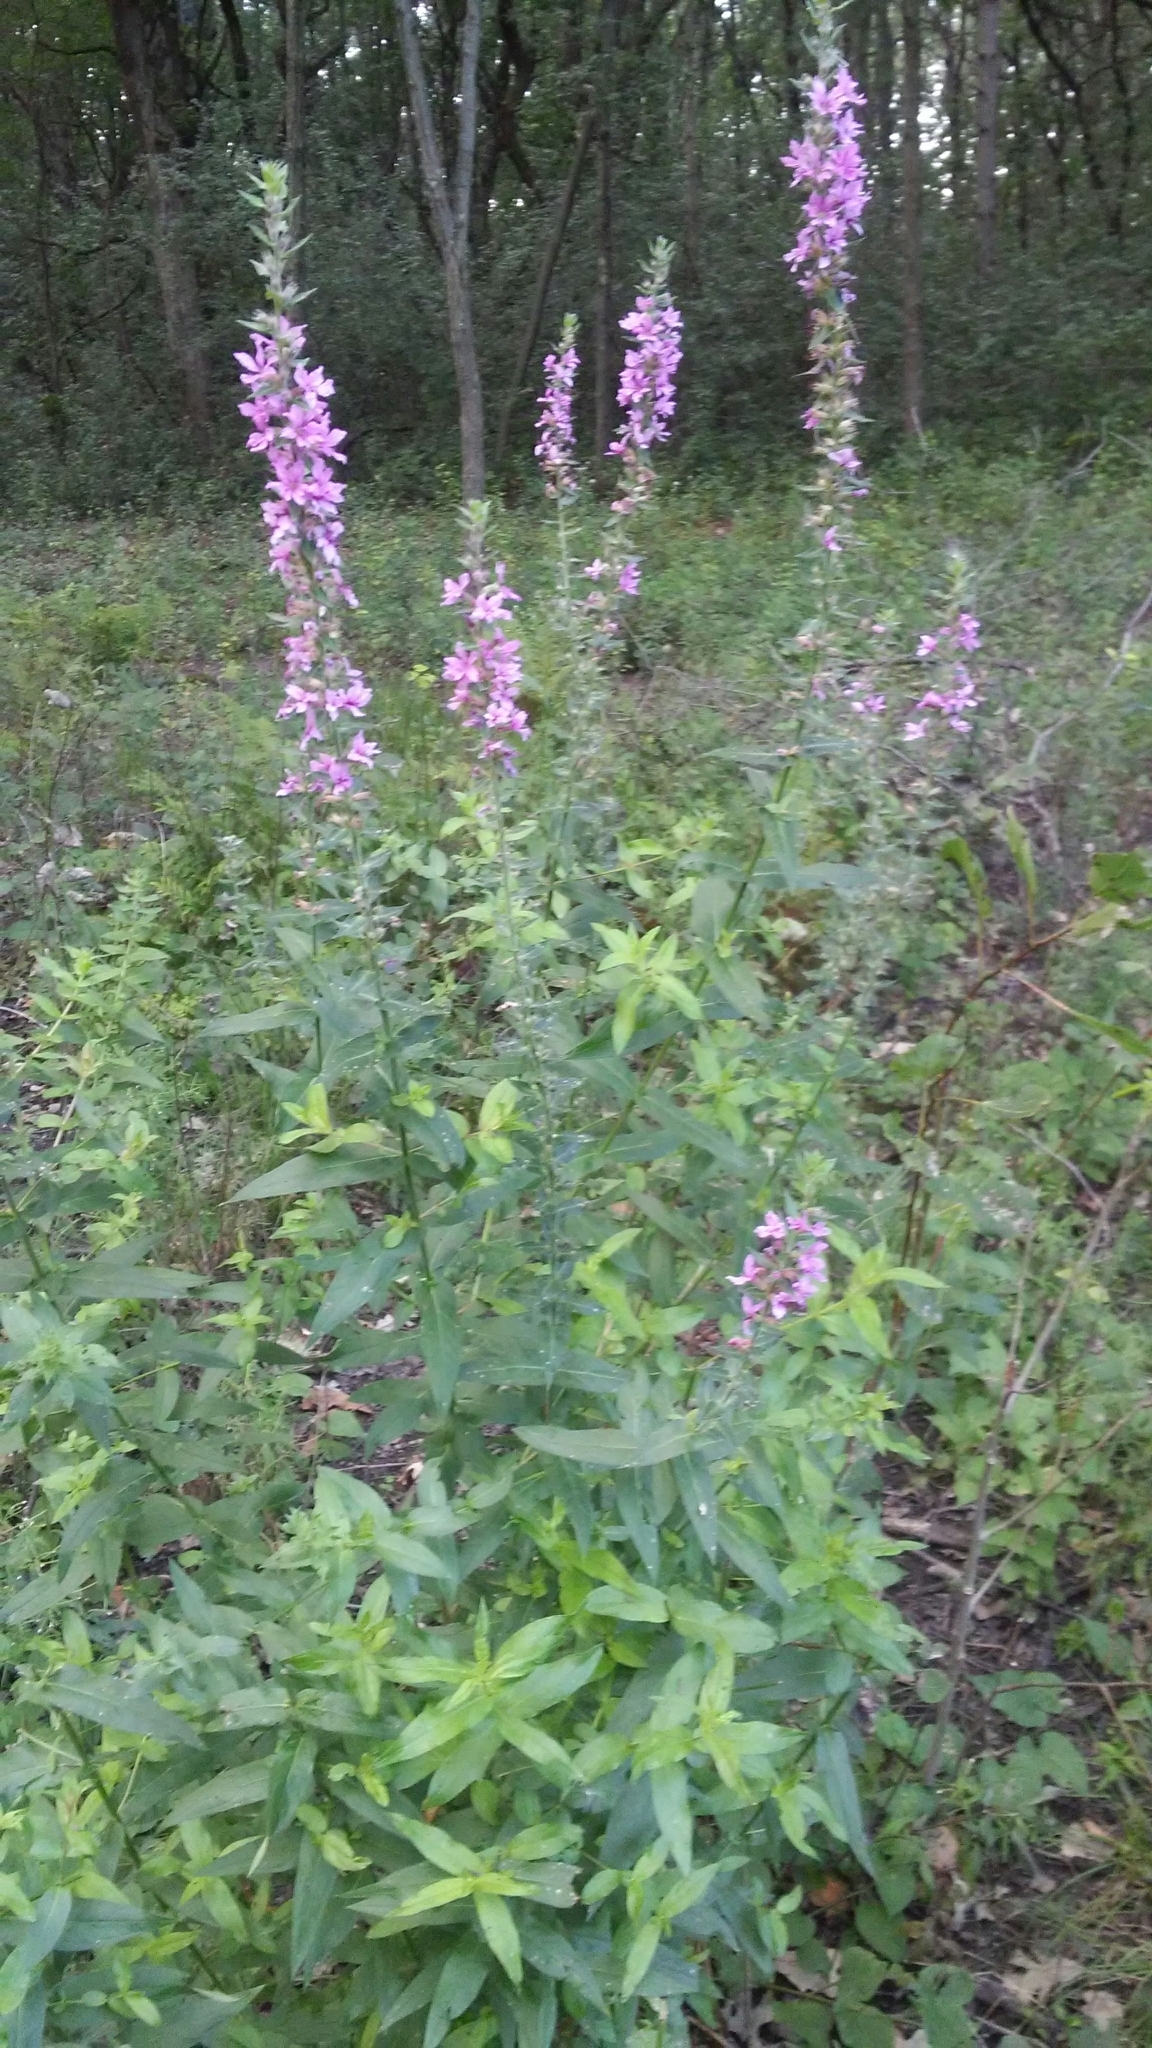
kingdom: Plantae
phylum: Tracheophyta
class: Magnoliopsida
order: Myrtales
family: Lythraceae
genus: Lythrum
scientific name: Lythrum salicaria
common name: Purple loosestrife
